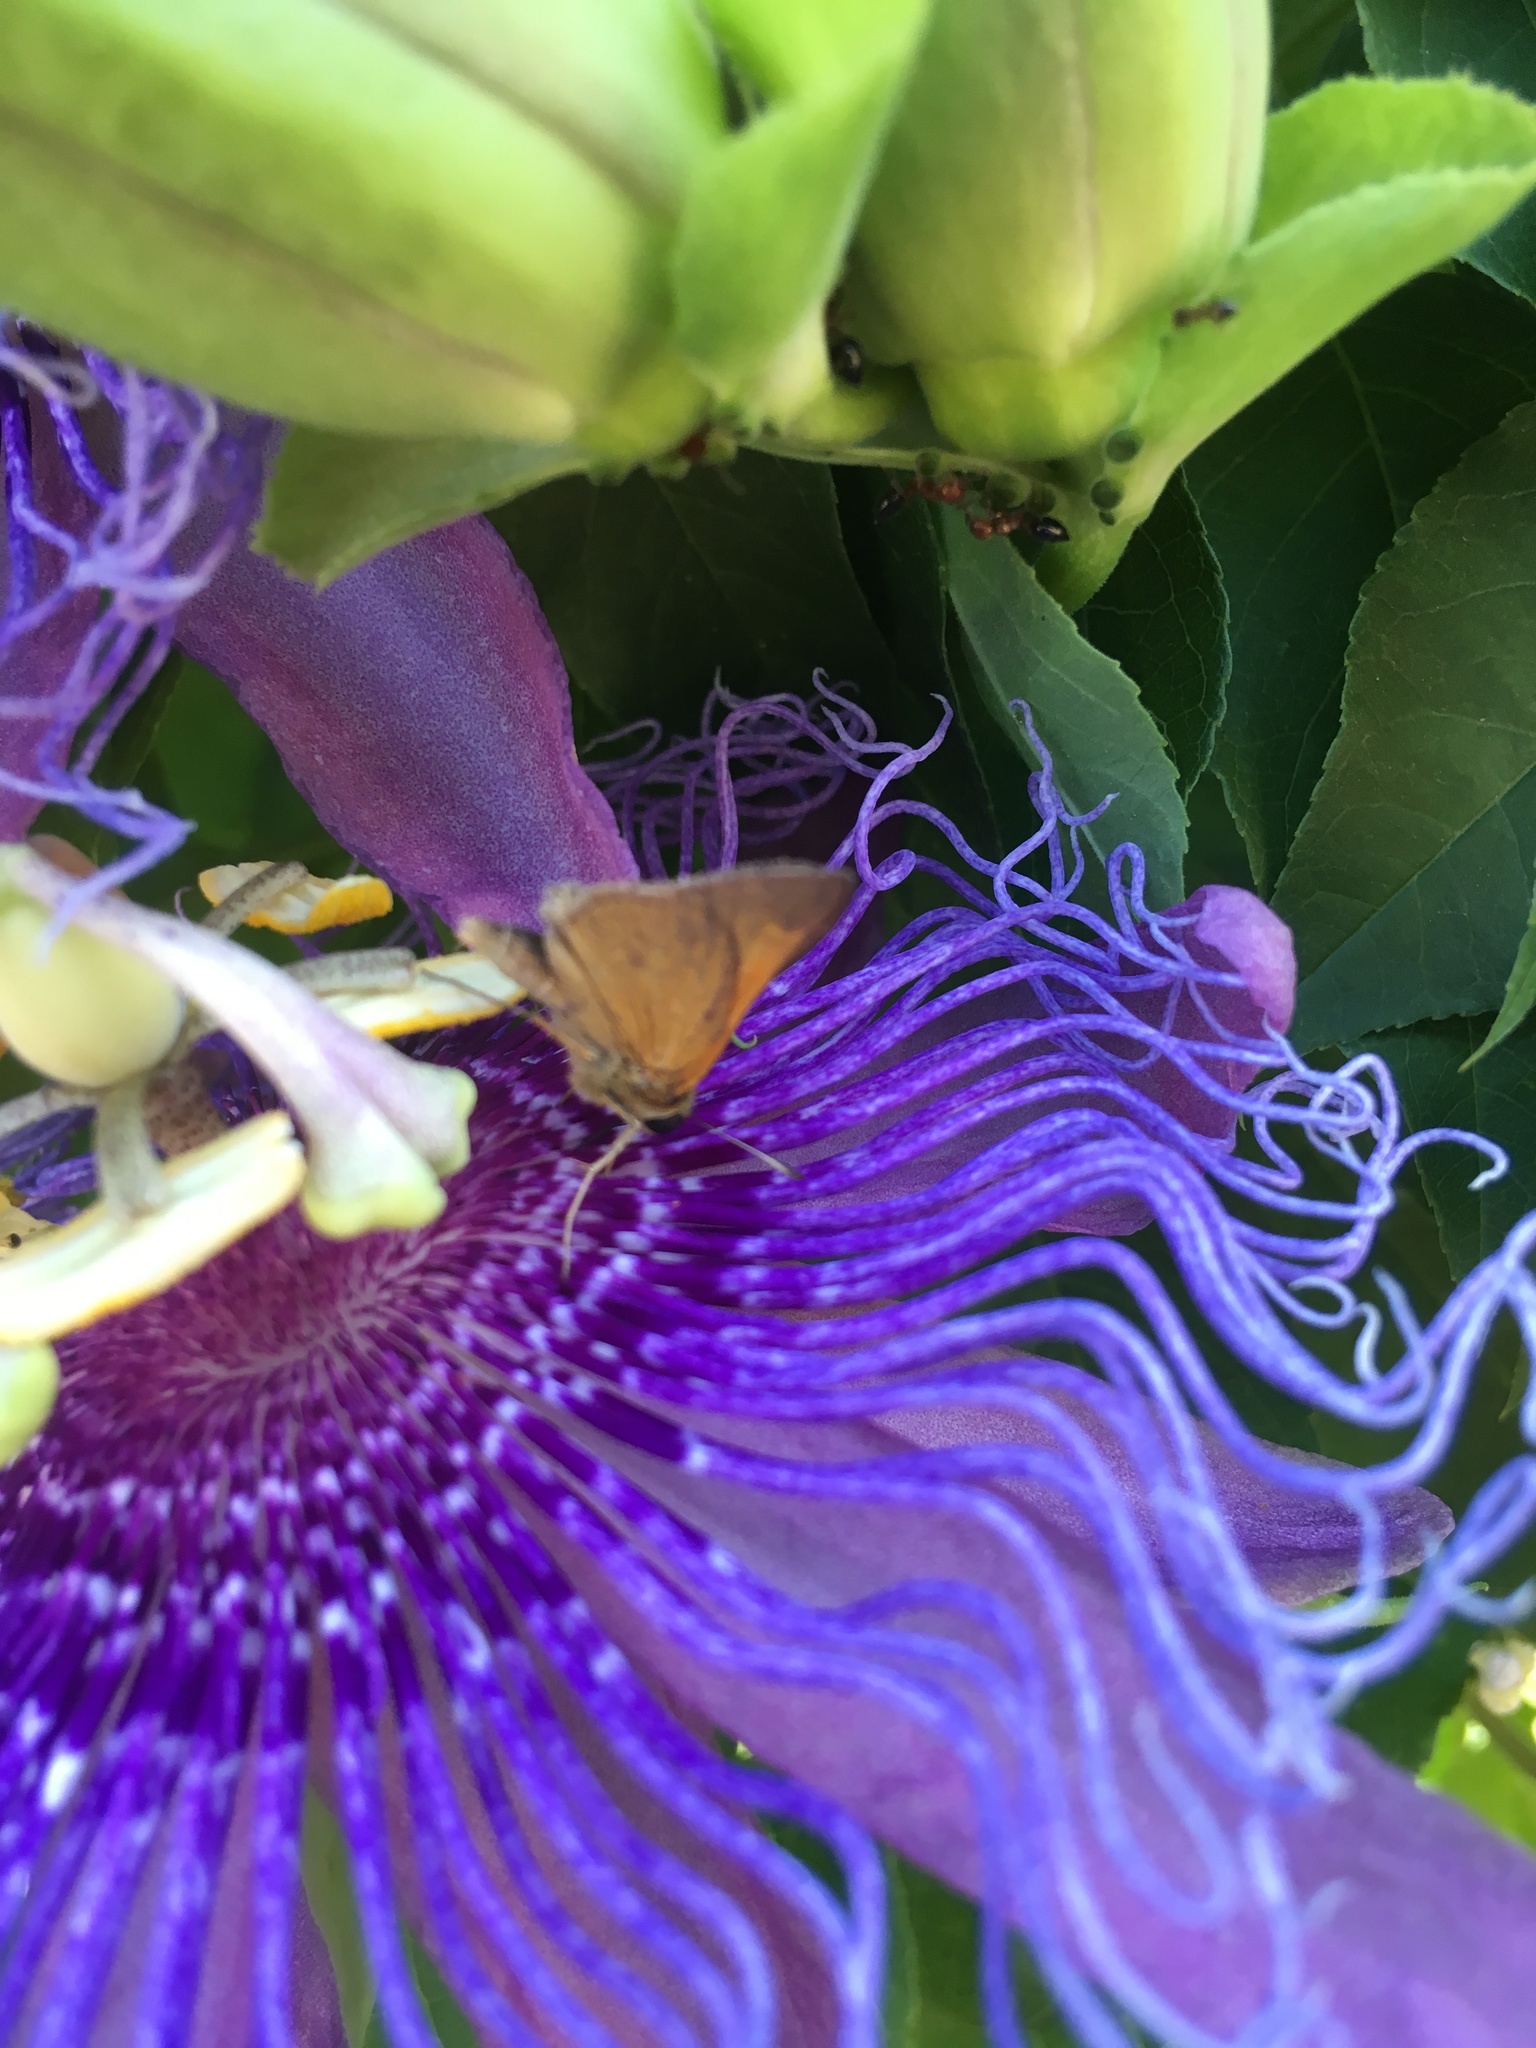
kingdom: Animalia
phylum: Arthropoda
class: Insecta
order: Lepidoptera
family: Hesperiidae
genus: Polites
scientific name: Polites themistocles
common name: Tawny-edged skipper
